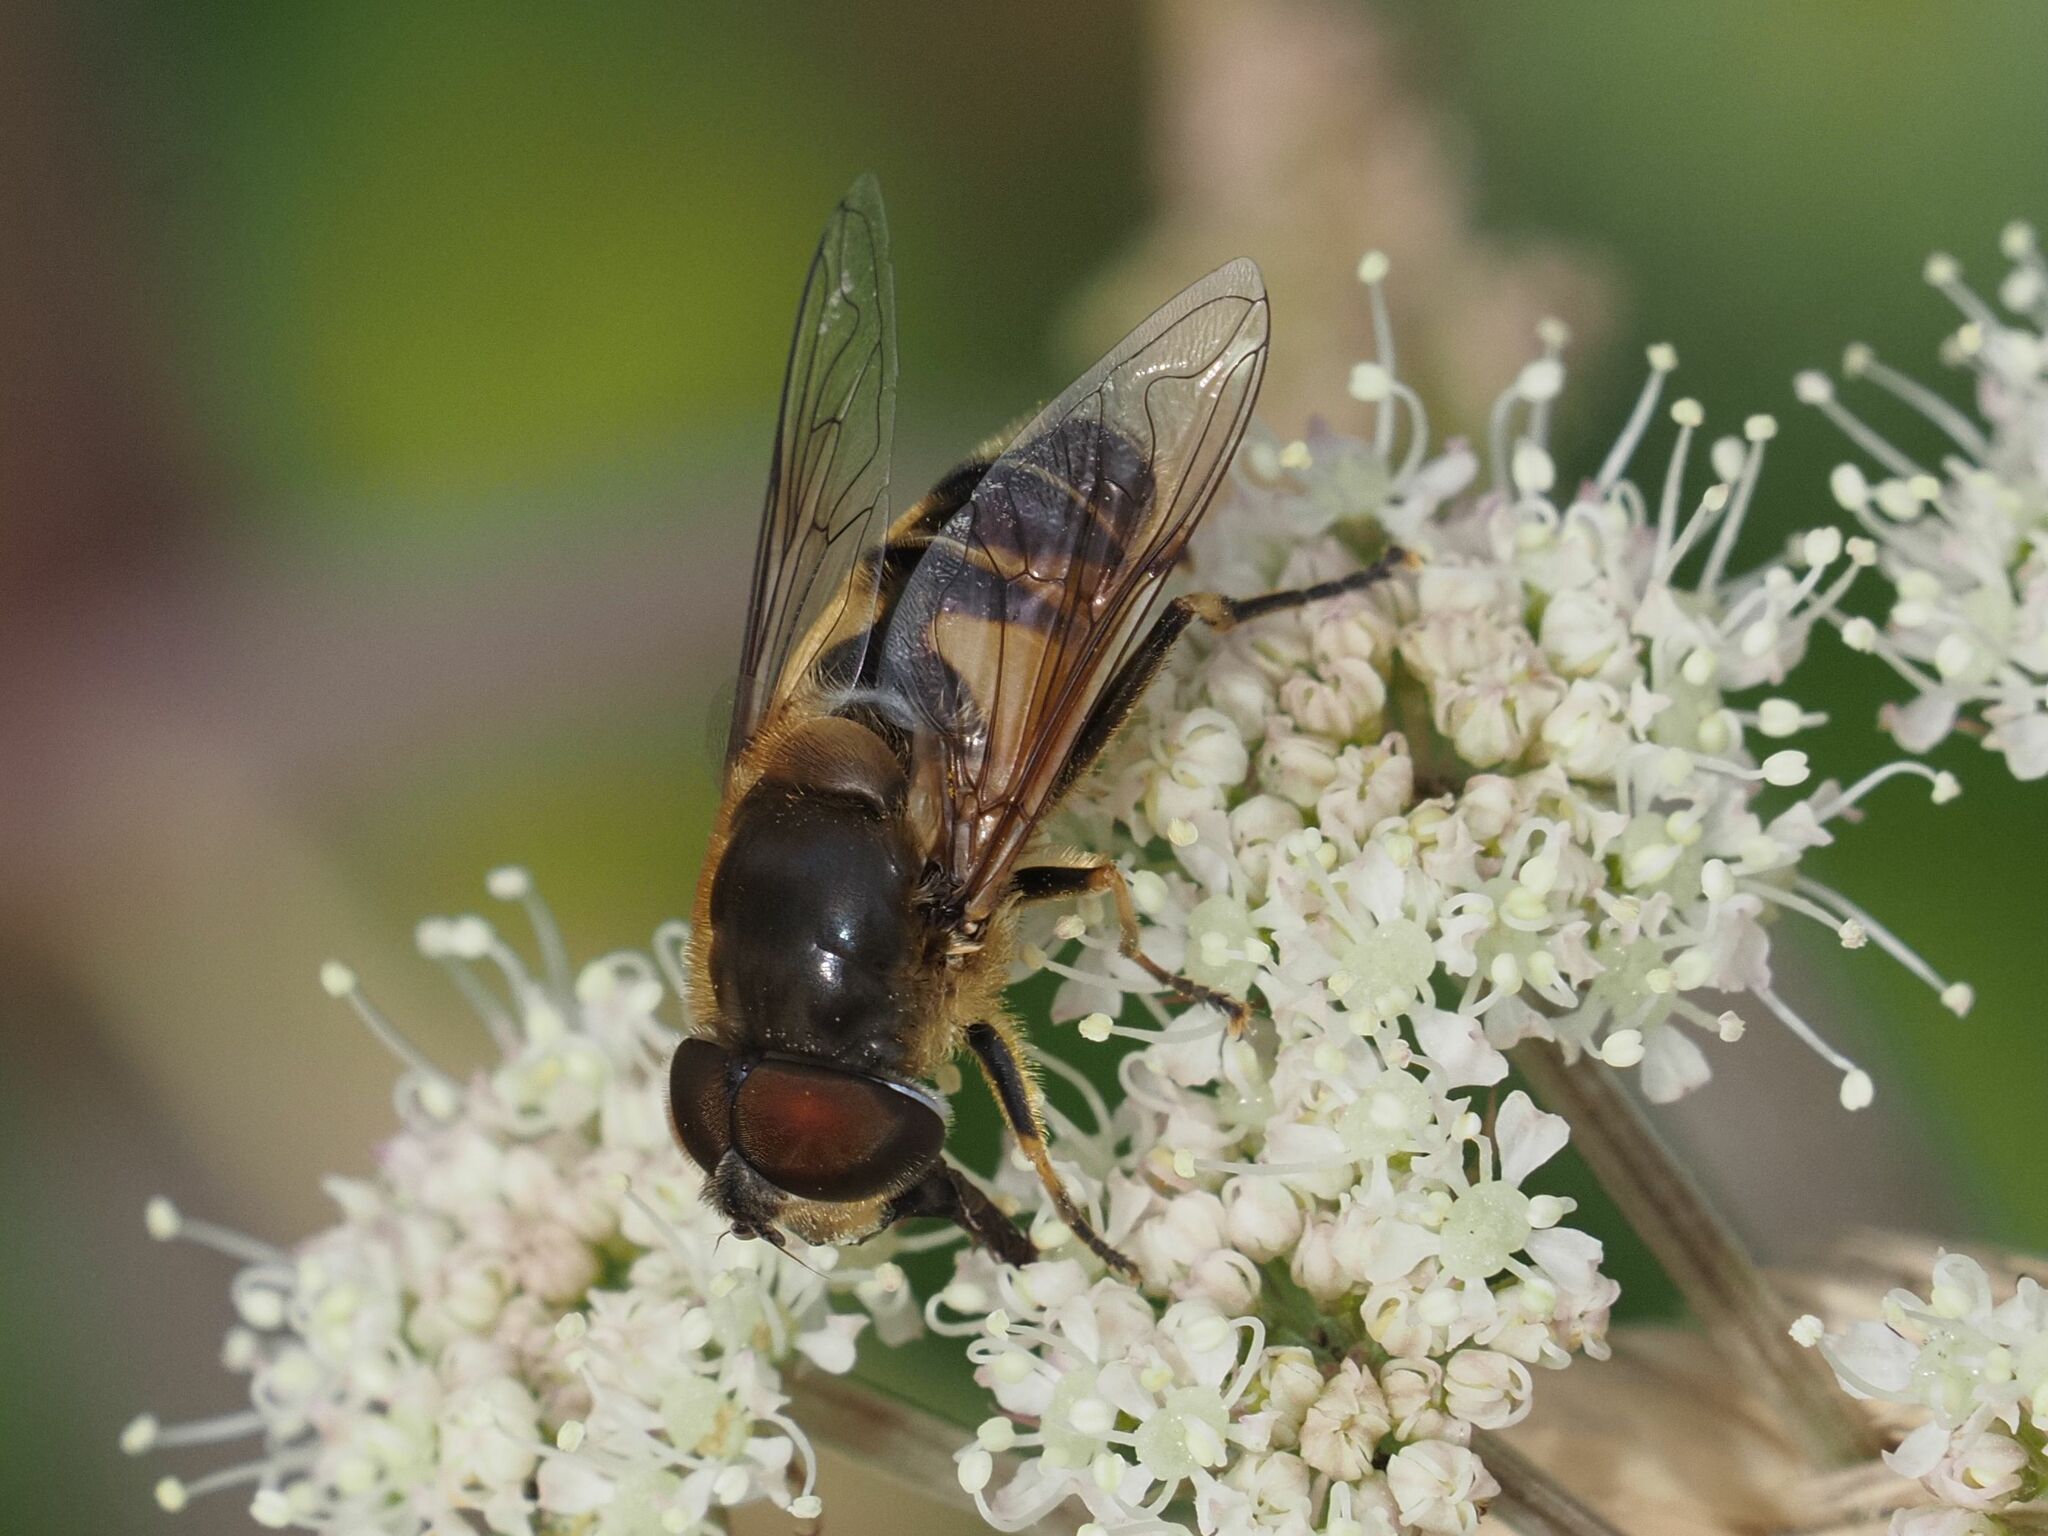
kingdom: Animalia
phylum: Arthropoda
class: Insecta
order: Diptera
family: Syrphidae
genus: Eristalis
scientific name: Eristalis pertinax
